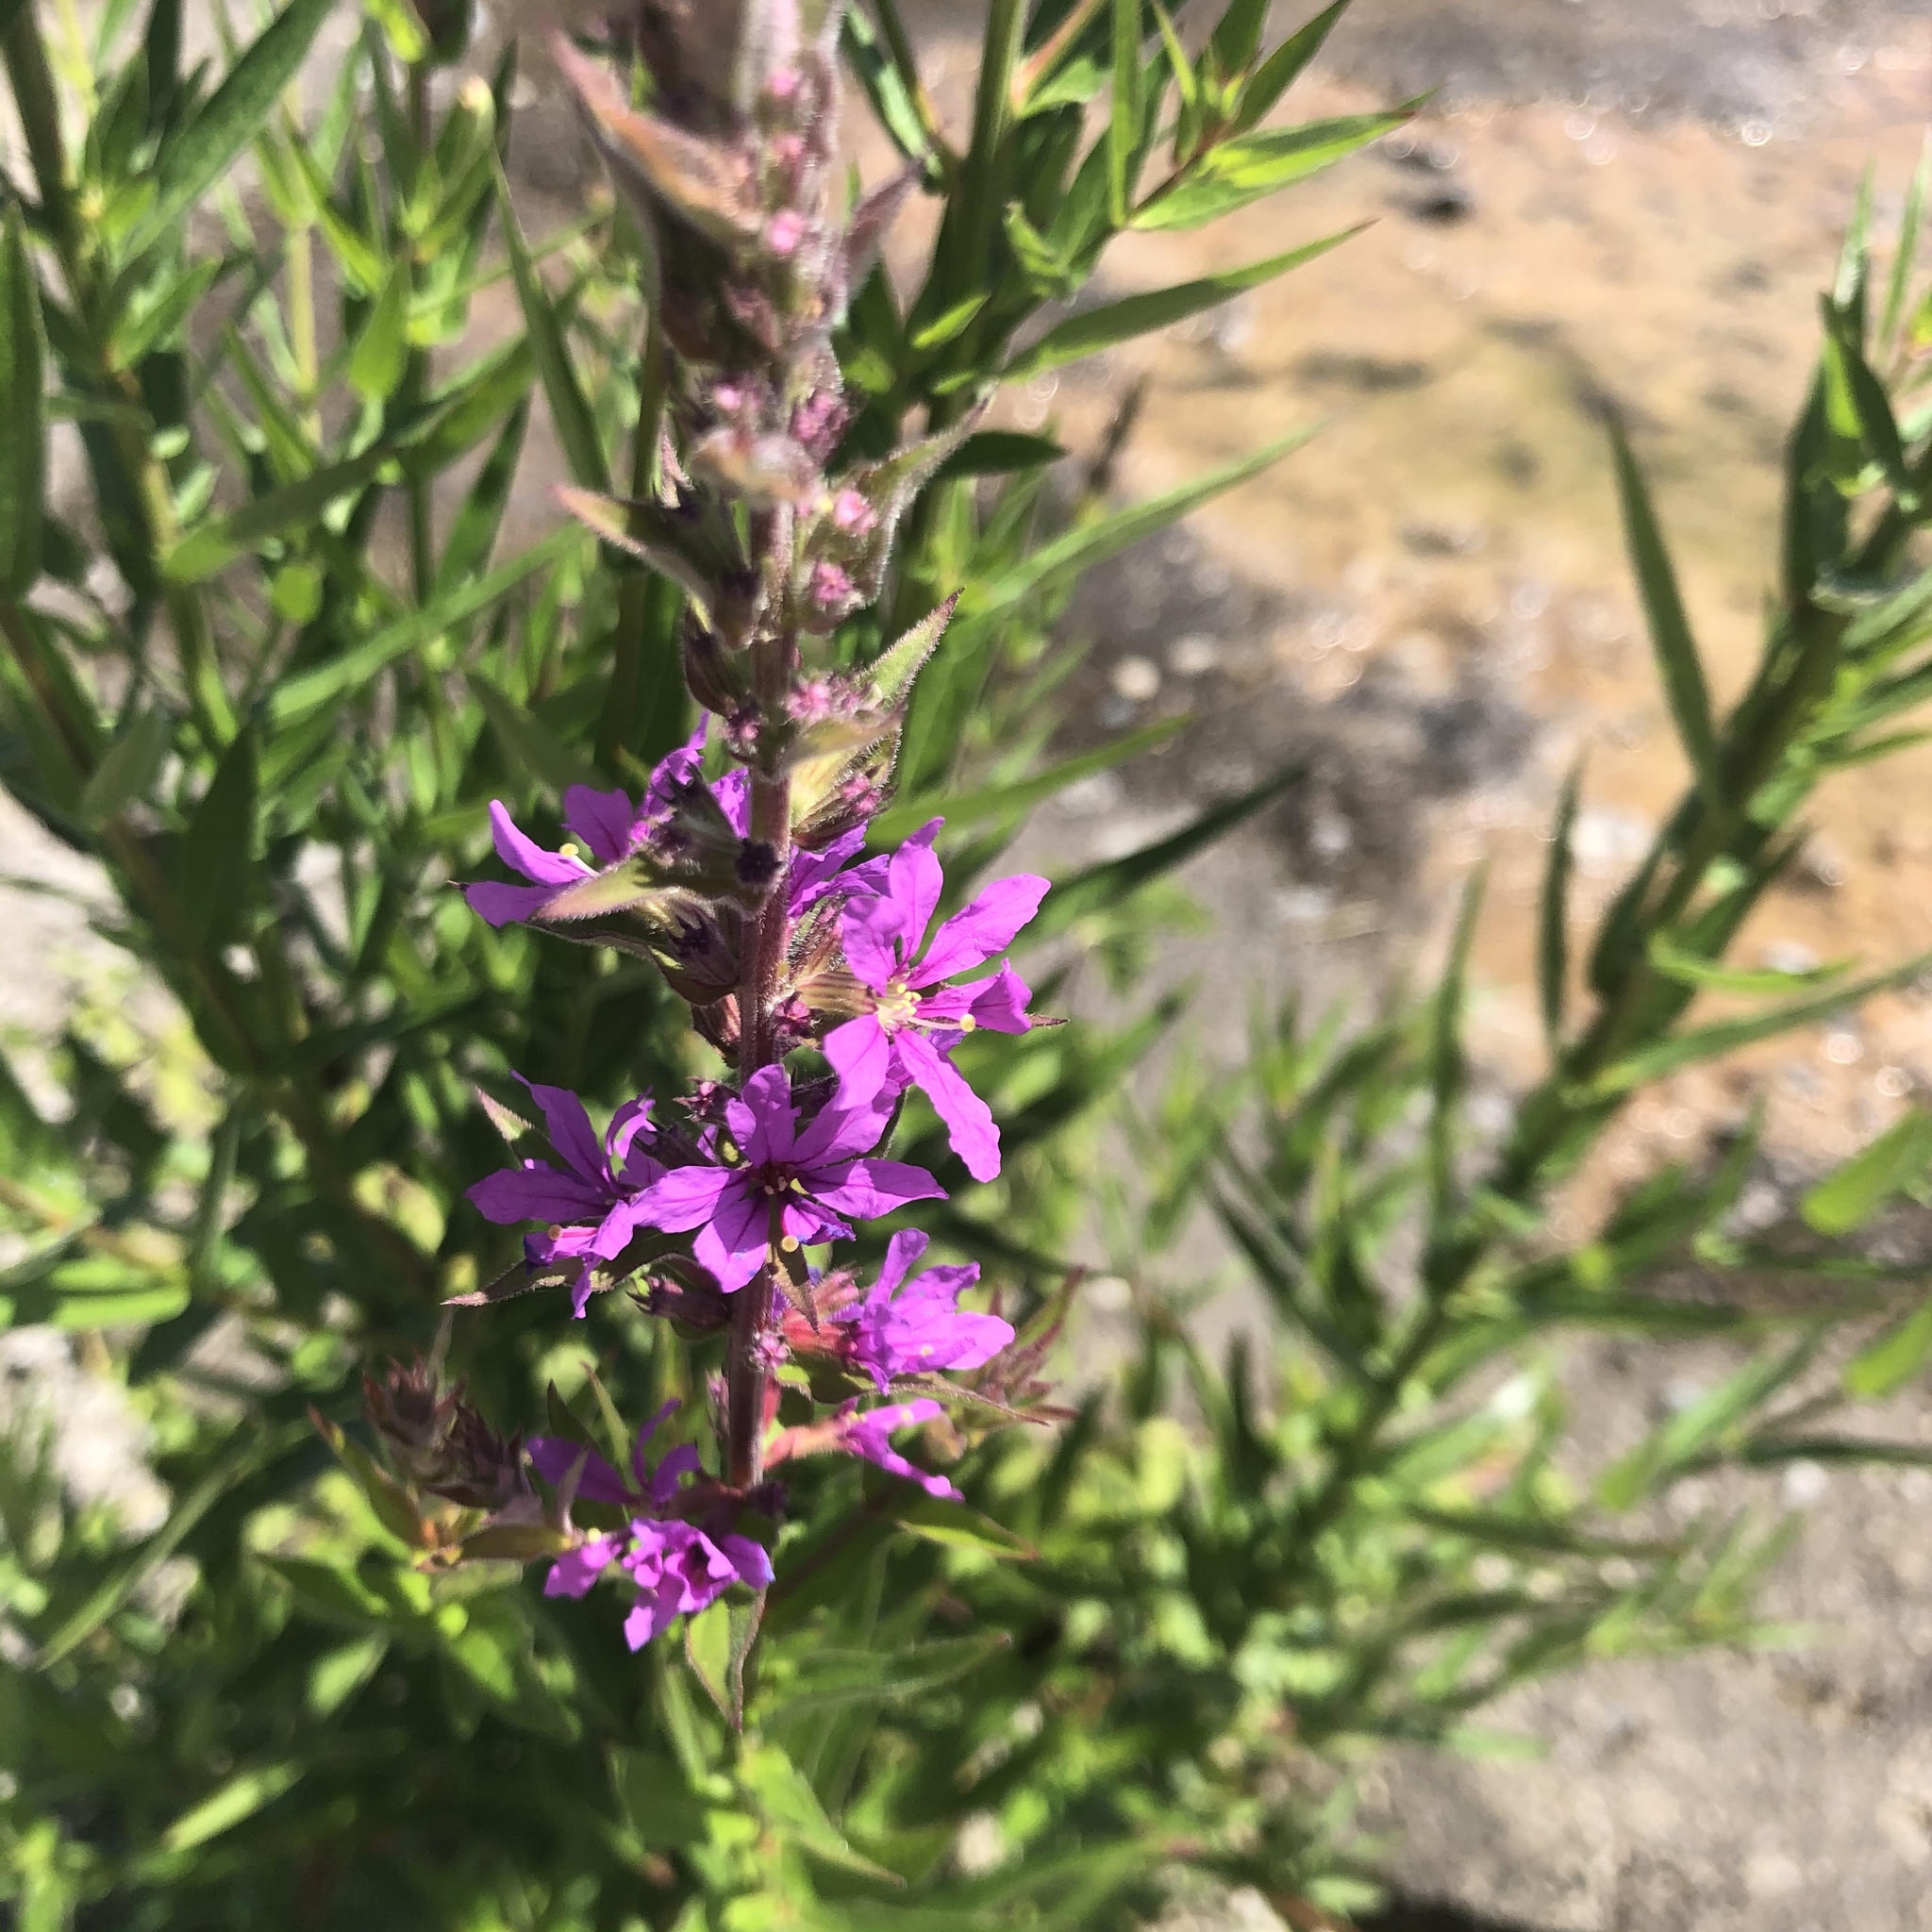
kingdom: Plantae
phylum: Tracheophyta
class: Magnoliopsida
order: Myrtales
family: Lythraceae
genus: Lythrum
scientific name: Lythrum salicaria
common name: Purple loosestrife
